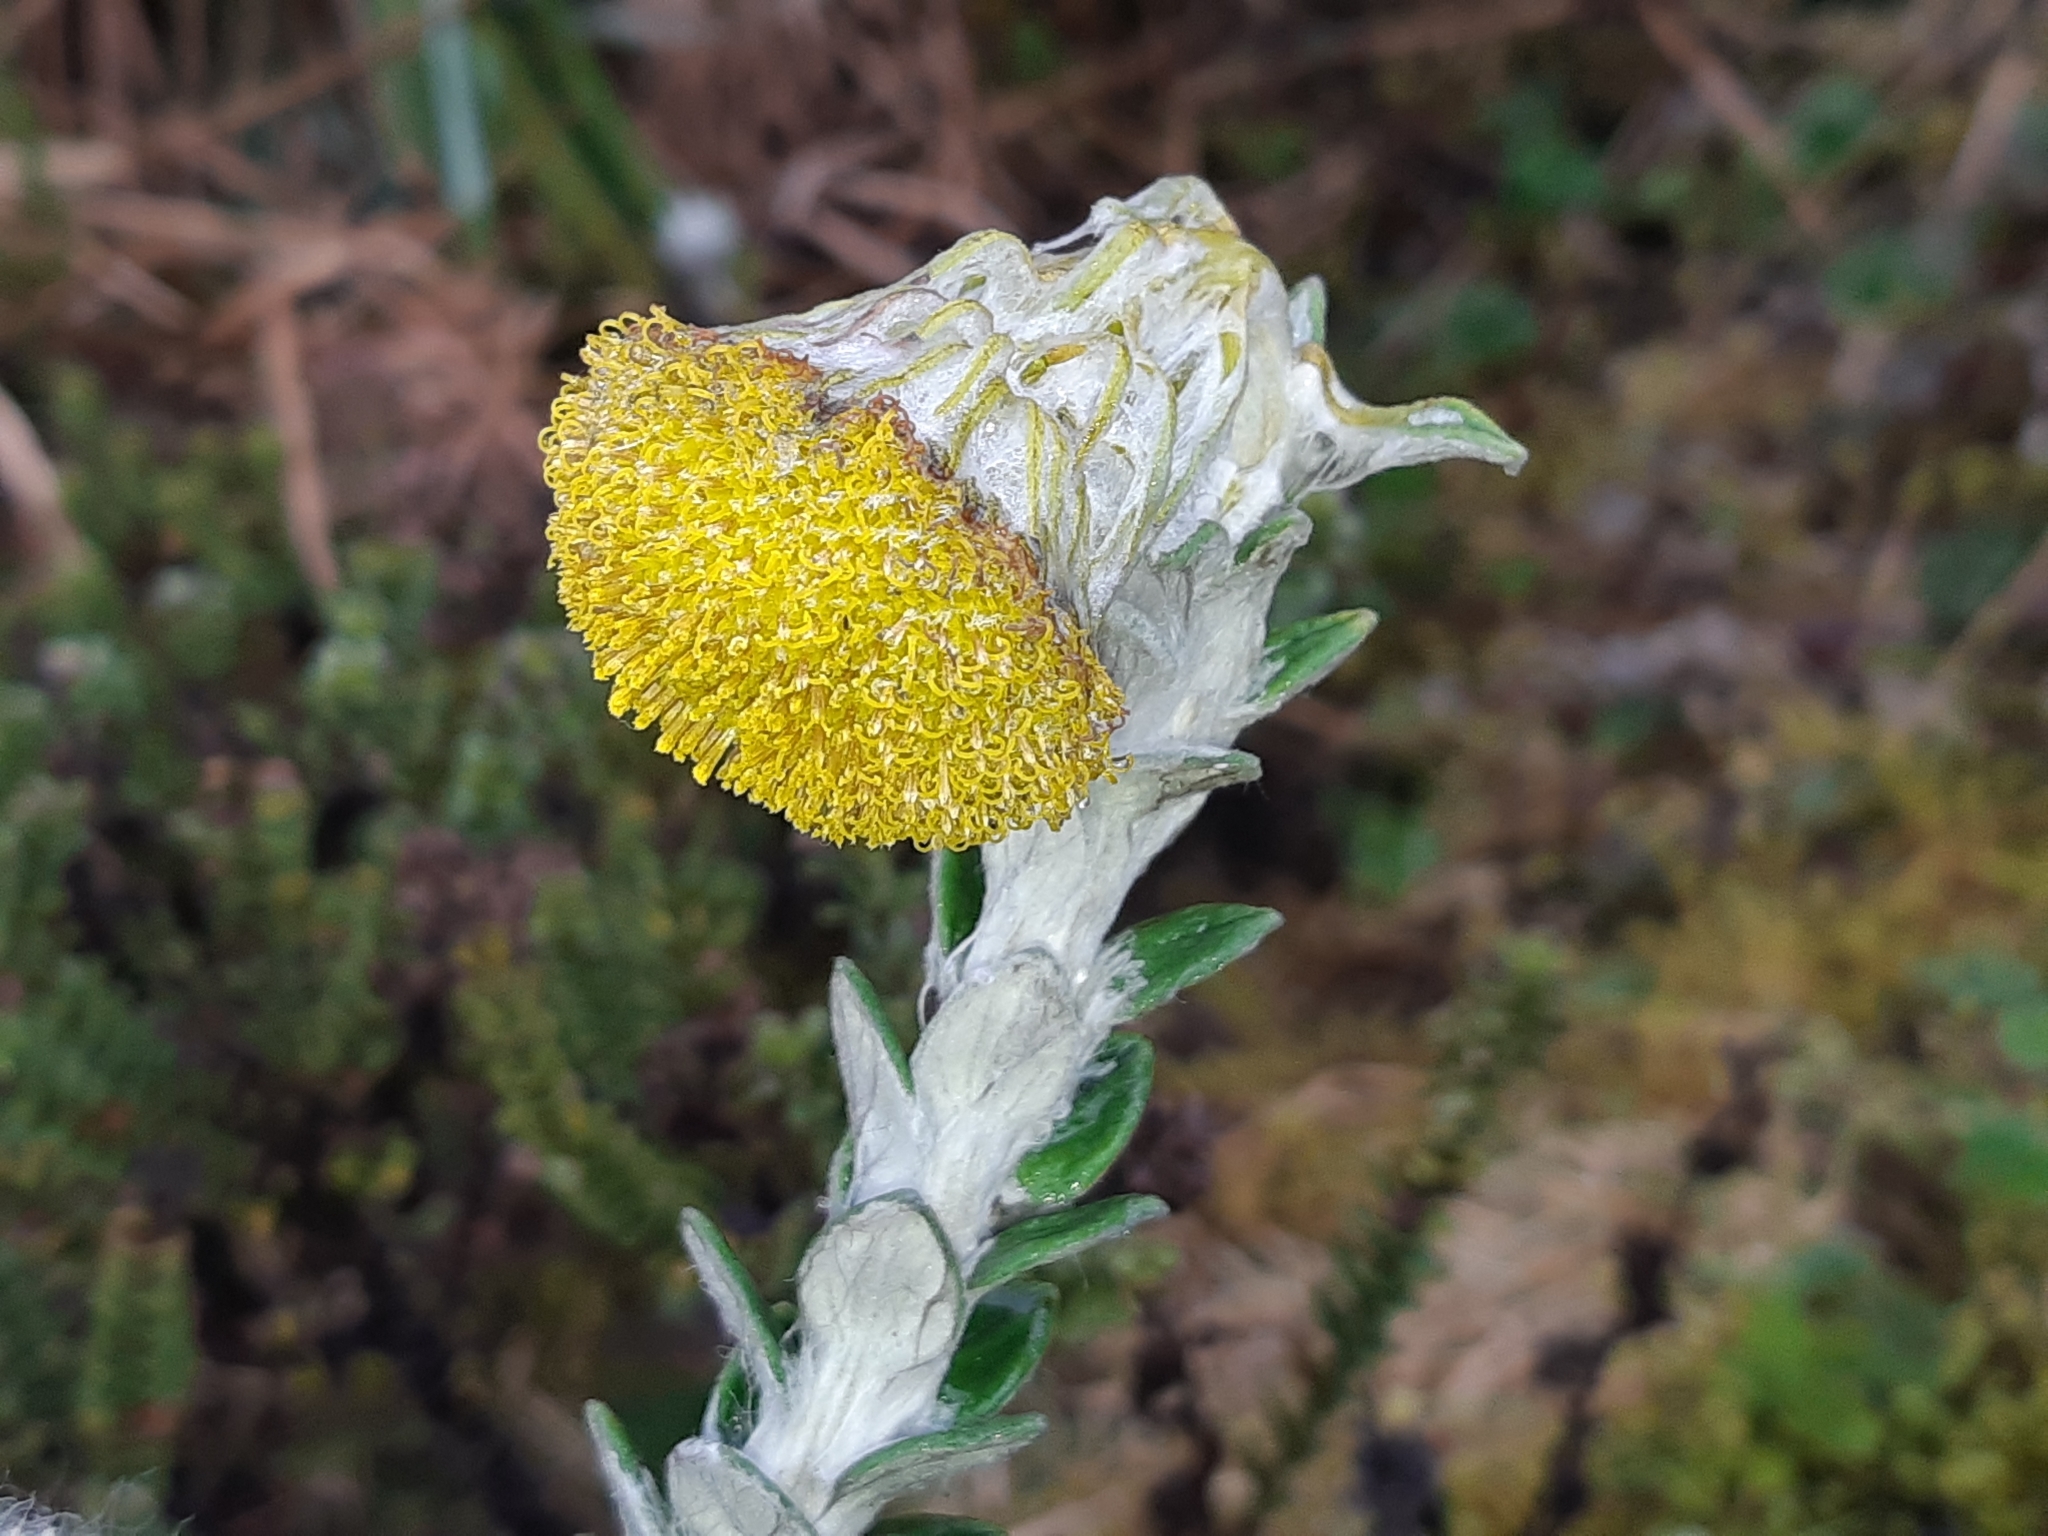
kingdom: Plantae
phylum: Tracheophyta
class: Magnoliopsida
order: Asterales
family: Asteraceae
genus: Lasiocephalus
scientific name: Lasiocephalus ovatus
